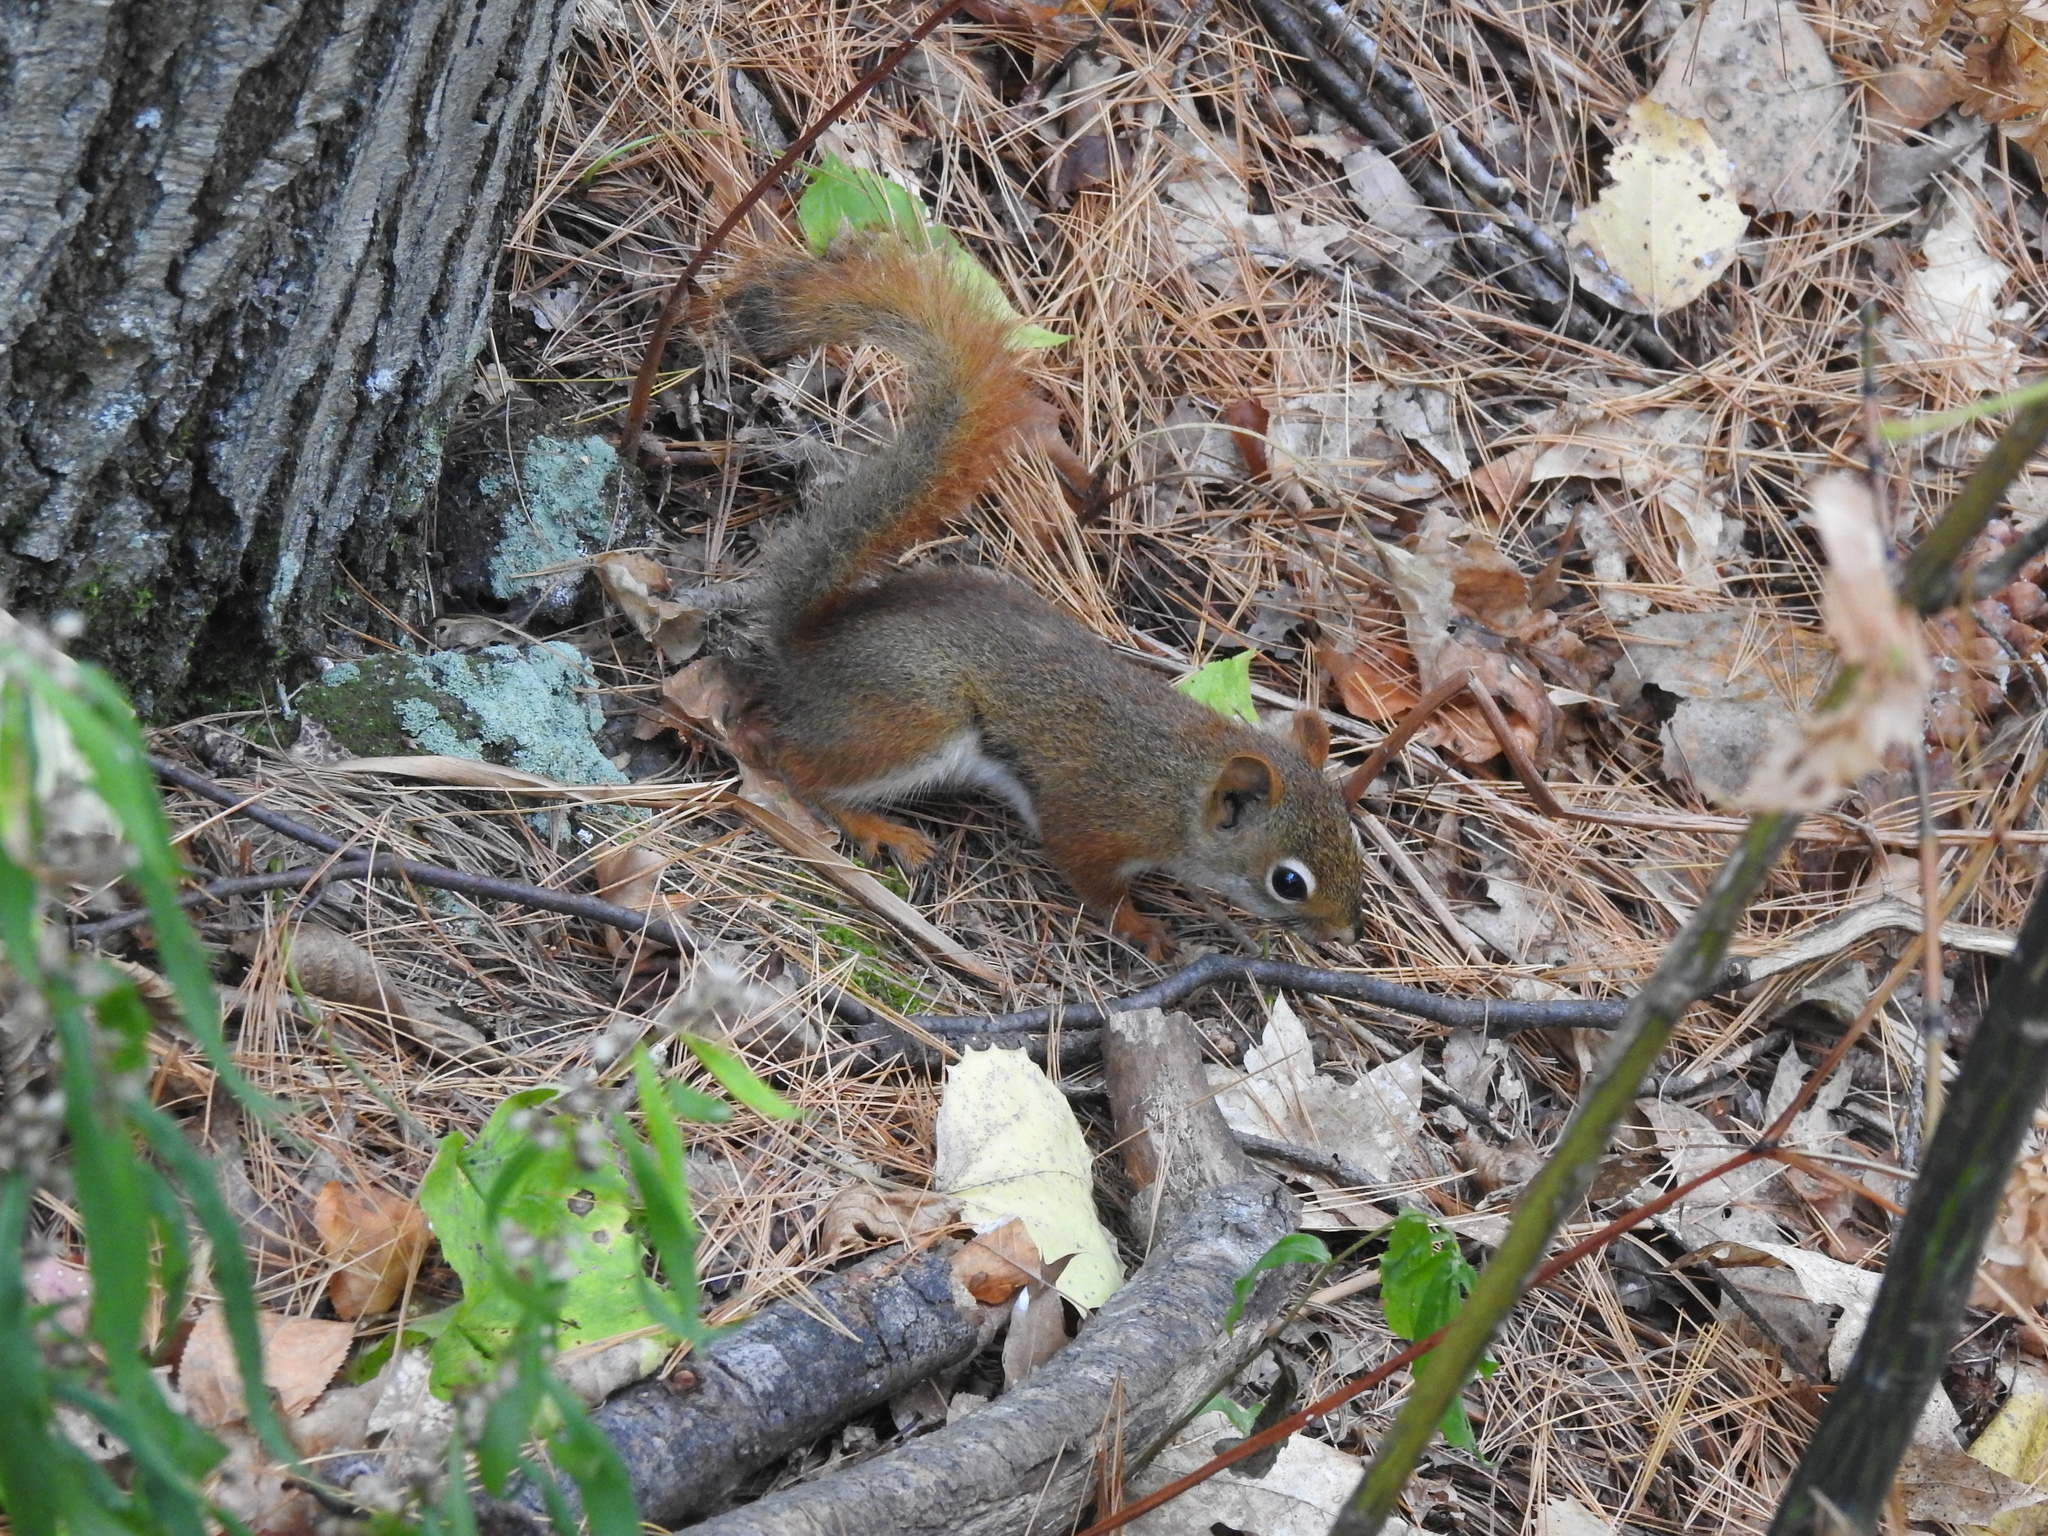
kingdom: Animalia
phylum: Chordata
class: Mammalia
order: Rodentia
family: Sciuridae
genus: Tamiasciurus
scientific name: Tamiasciurus hudsonicus
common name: Red squirrel
